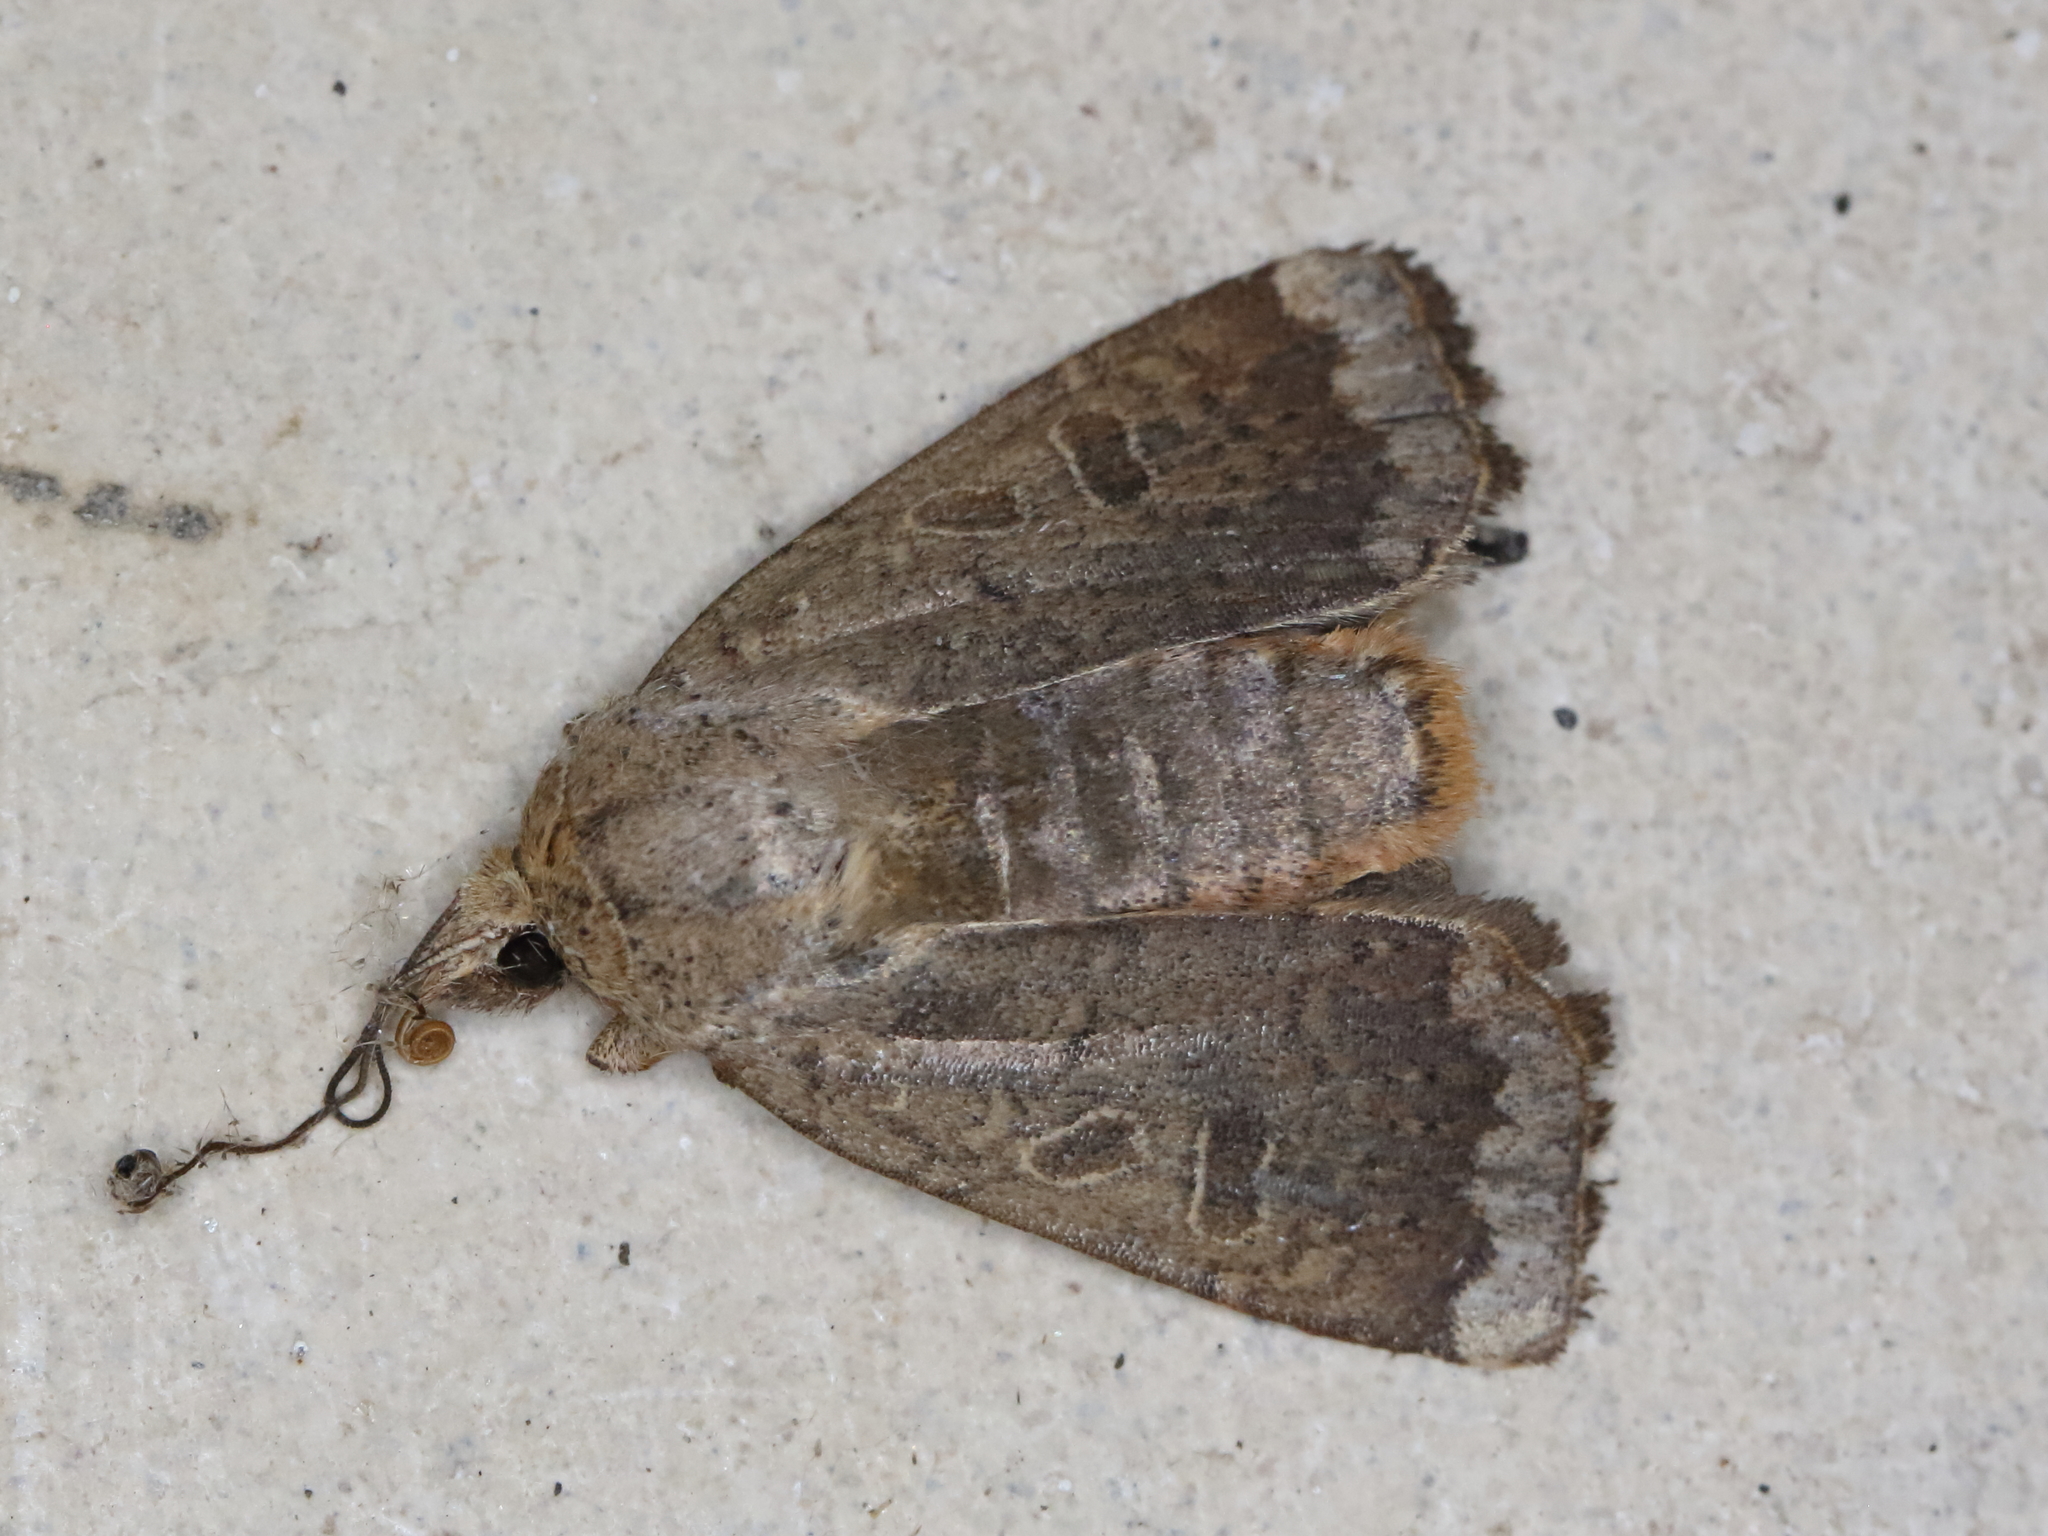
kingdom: Animalia
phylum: Arthropoda
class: Insecta
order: Lepidoptera
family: Noctuidae
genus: Abagrotis
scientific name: Abagrotis alternata
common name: Greater red dart
